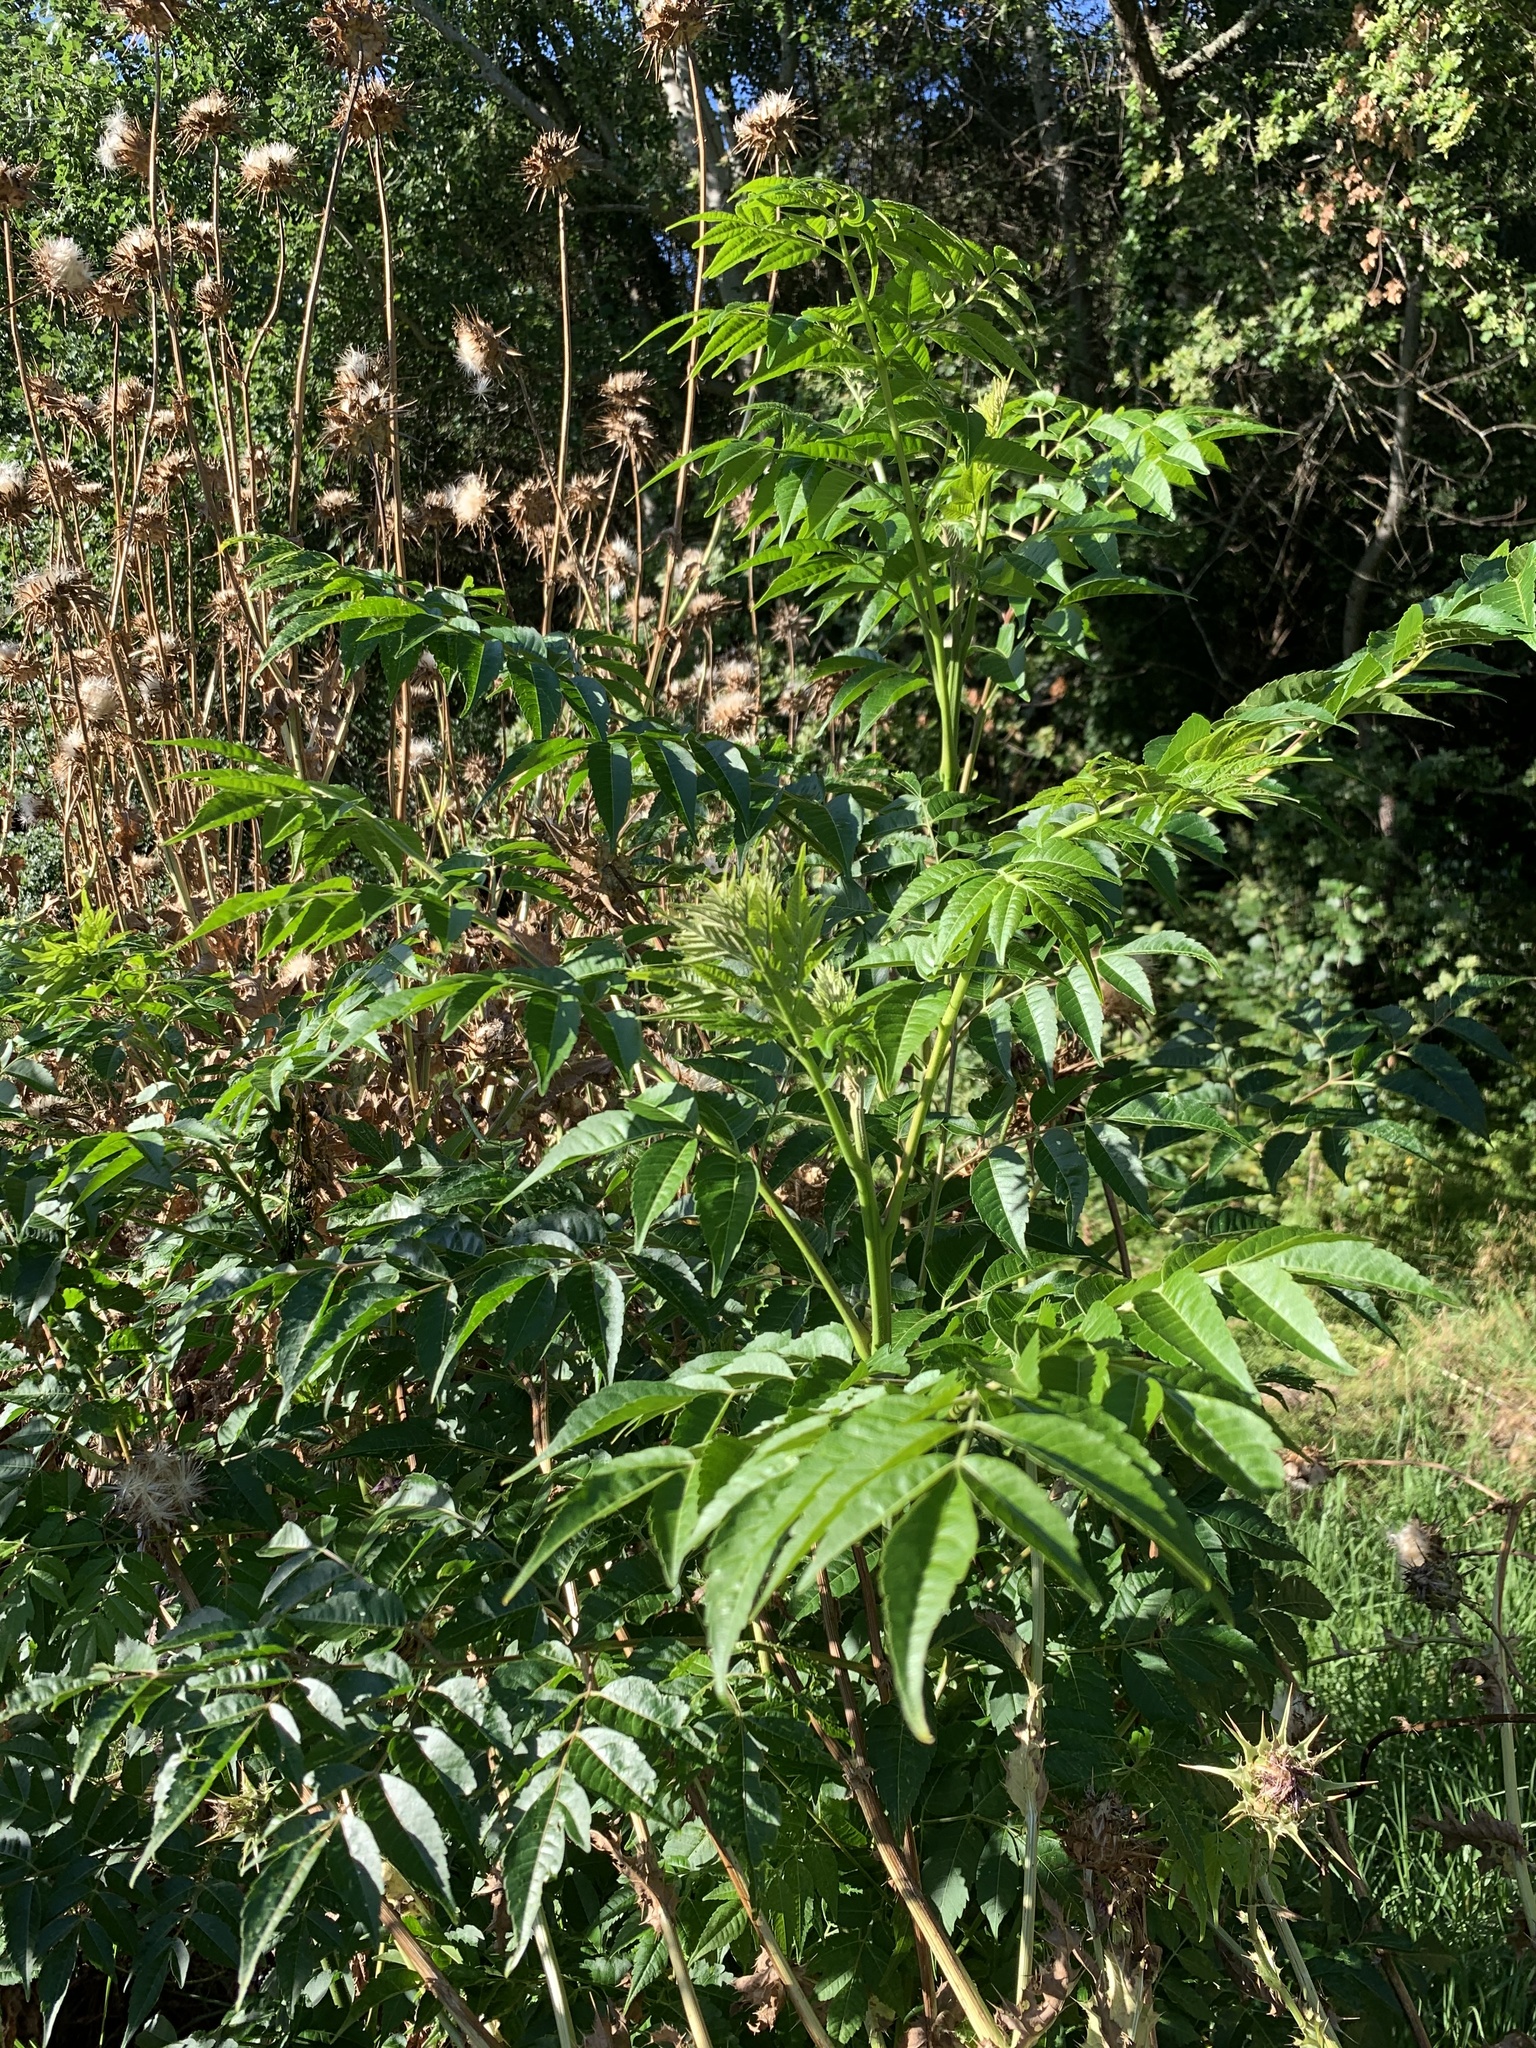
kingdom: Plantae
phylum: Tracheophyta
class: Magnoliopsida
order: Sapindales
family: Meliaceae
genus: Melia
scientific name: Melia azedarach
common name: Chinaberrytree
